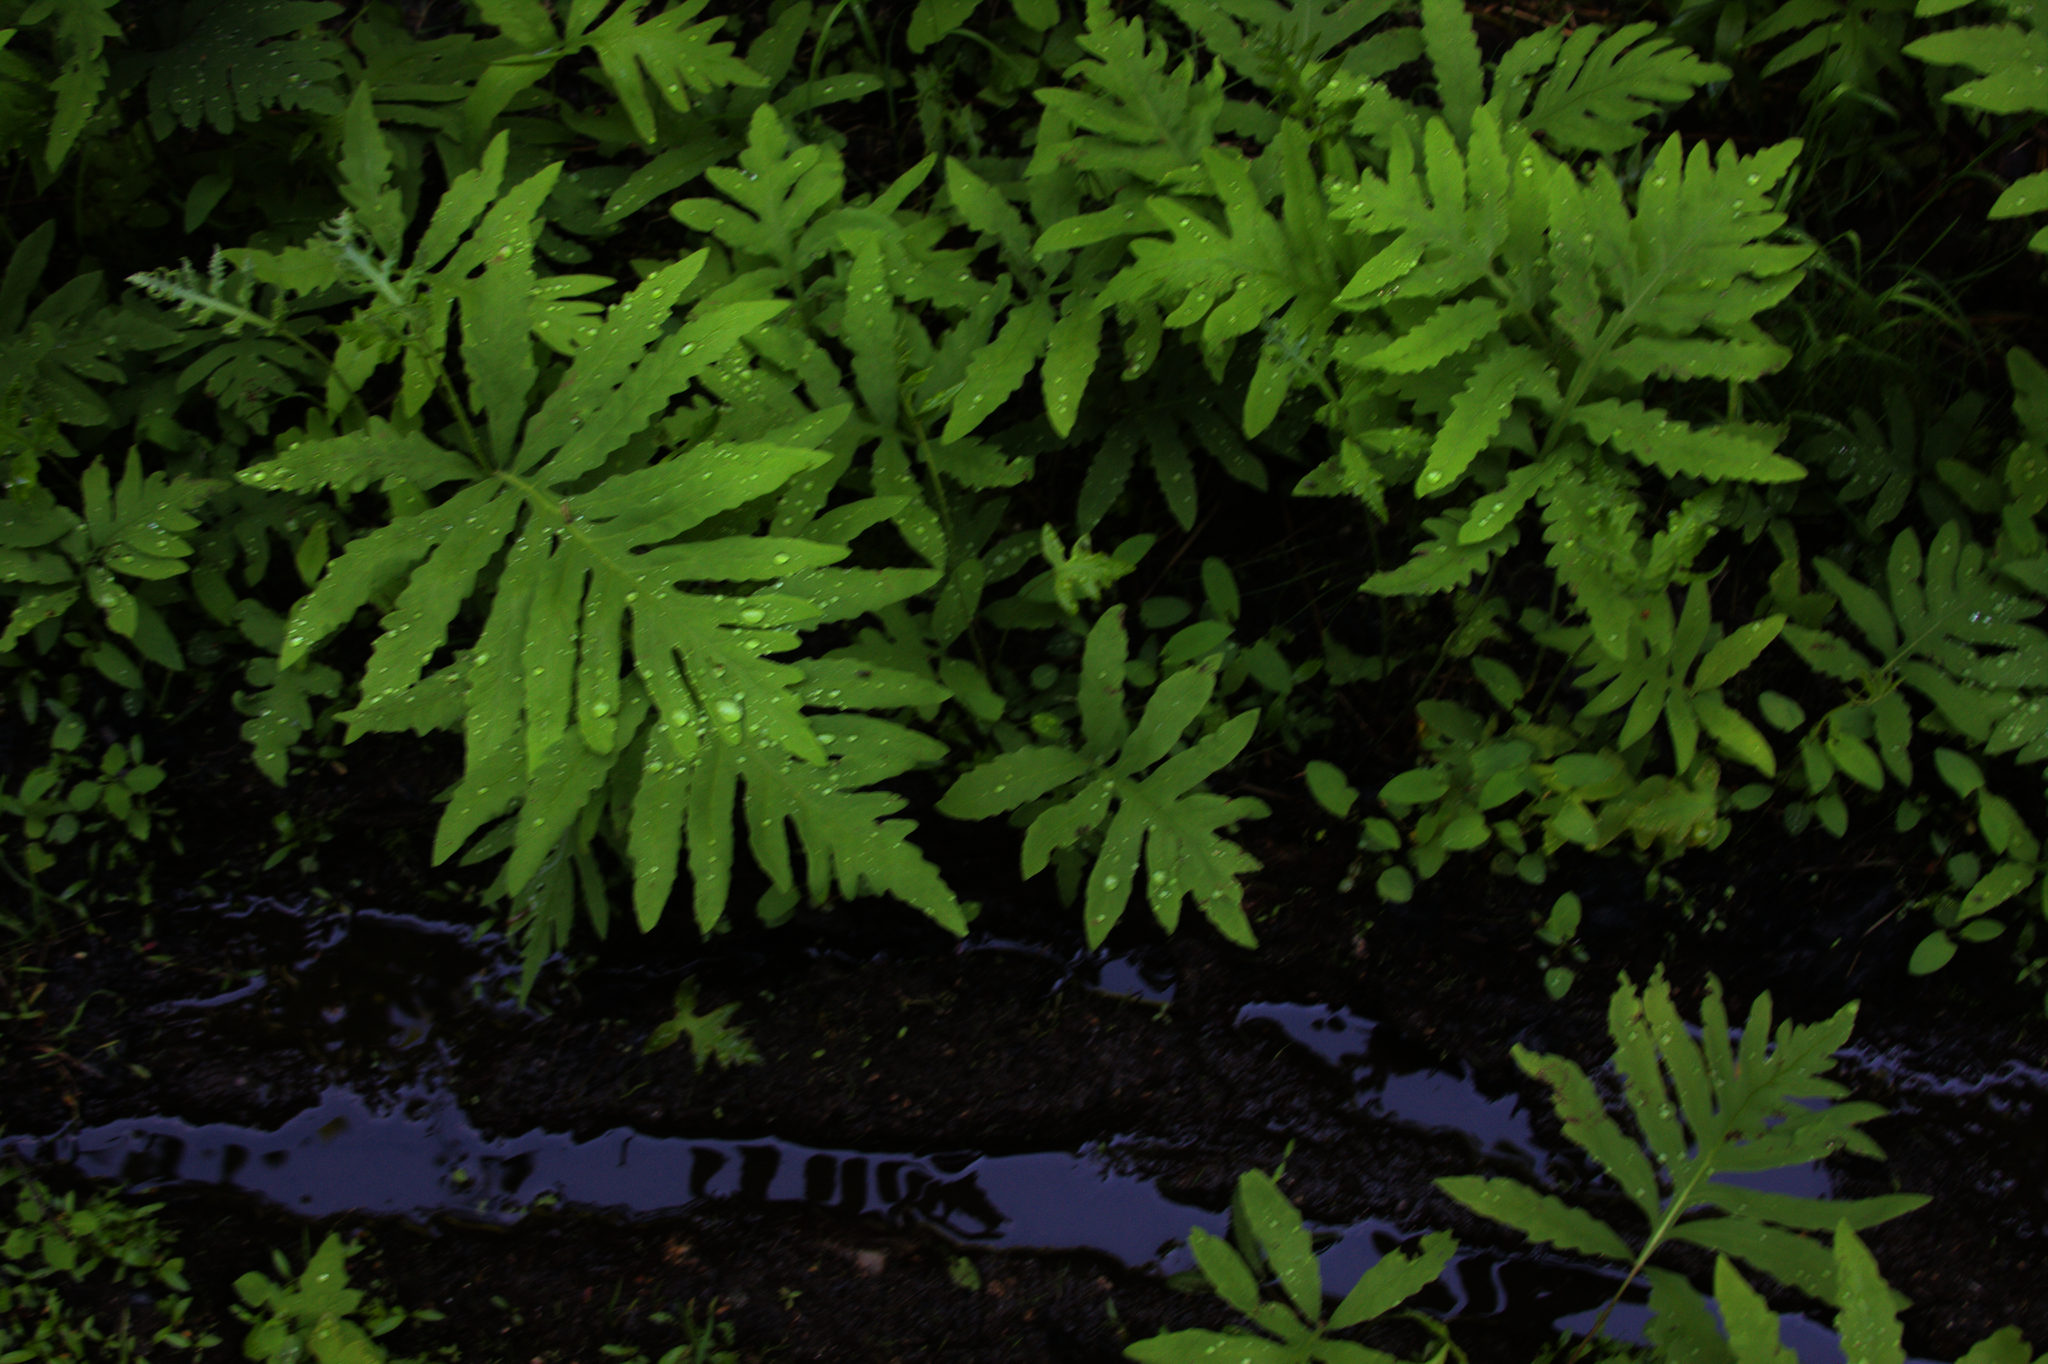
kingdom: Plantae
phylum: Tracheophyta
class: Polypodiopsida
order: Polypodiales
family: Onocleaceae
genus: Onoclea
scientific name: Onoclea sensibilis
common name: Sensitive fern
